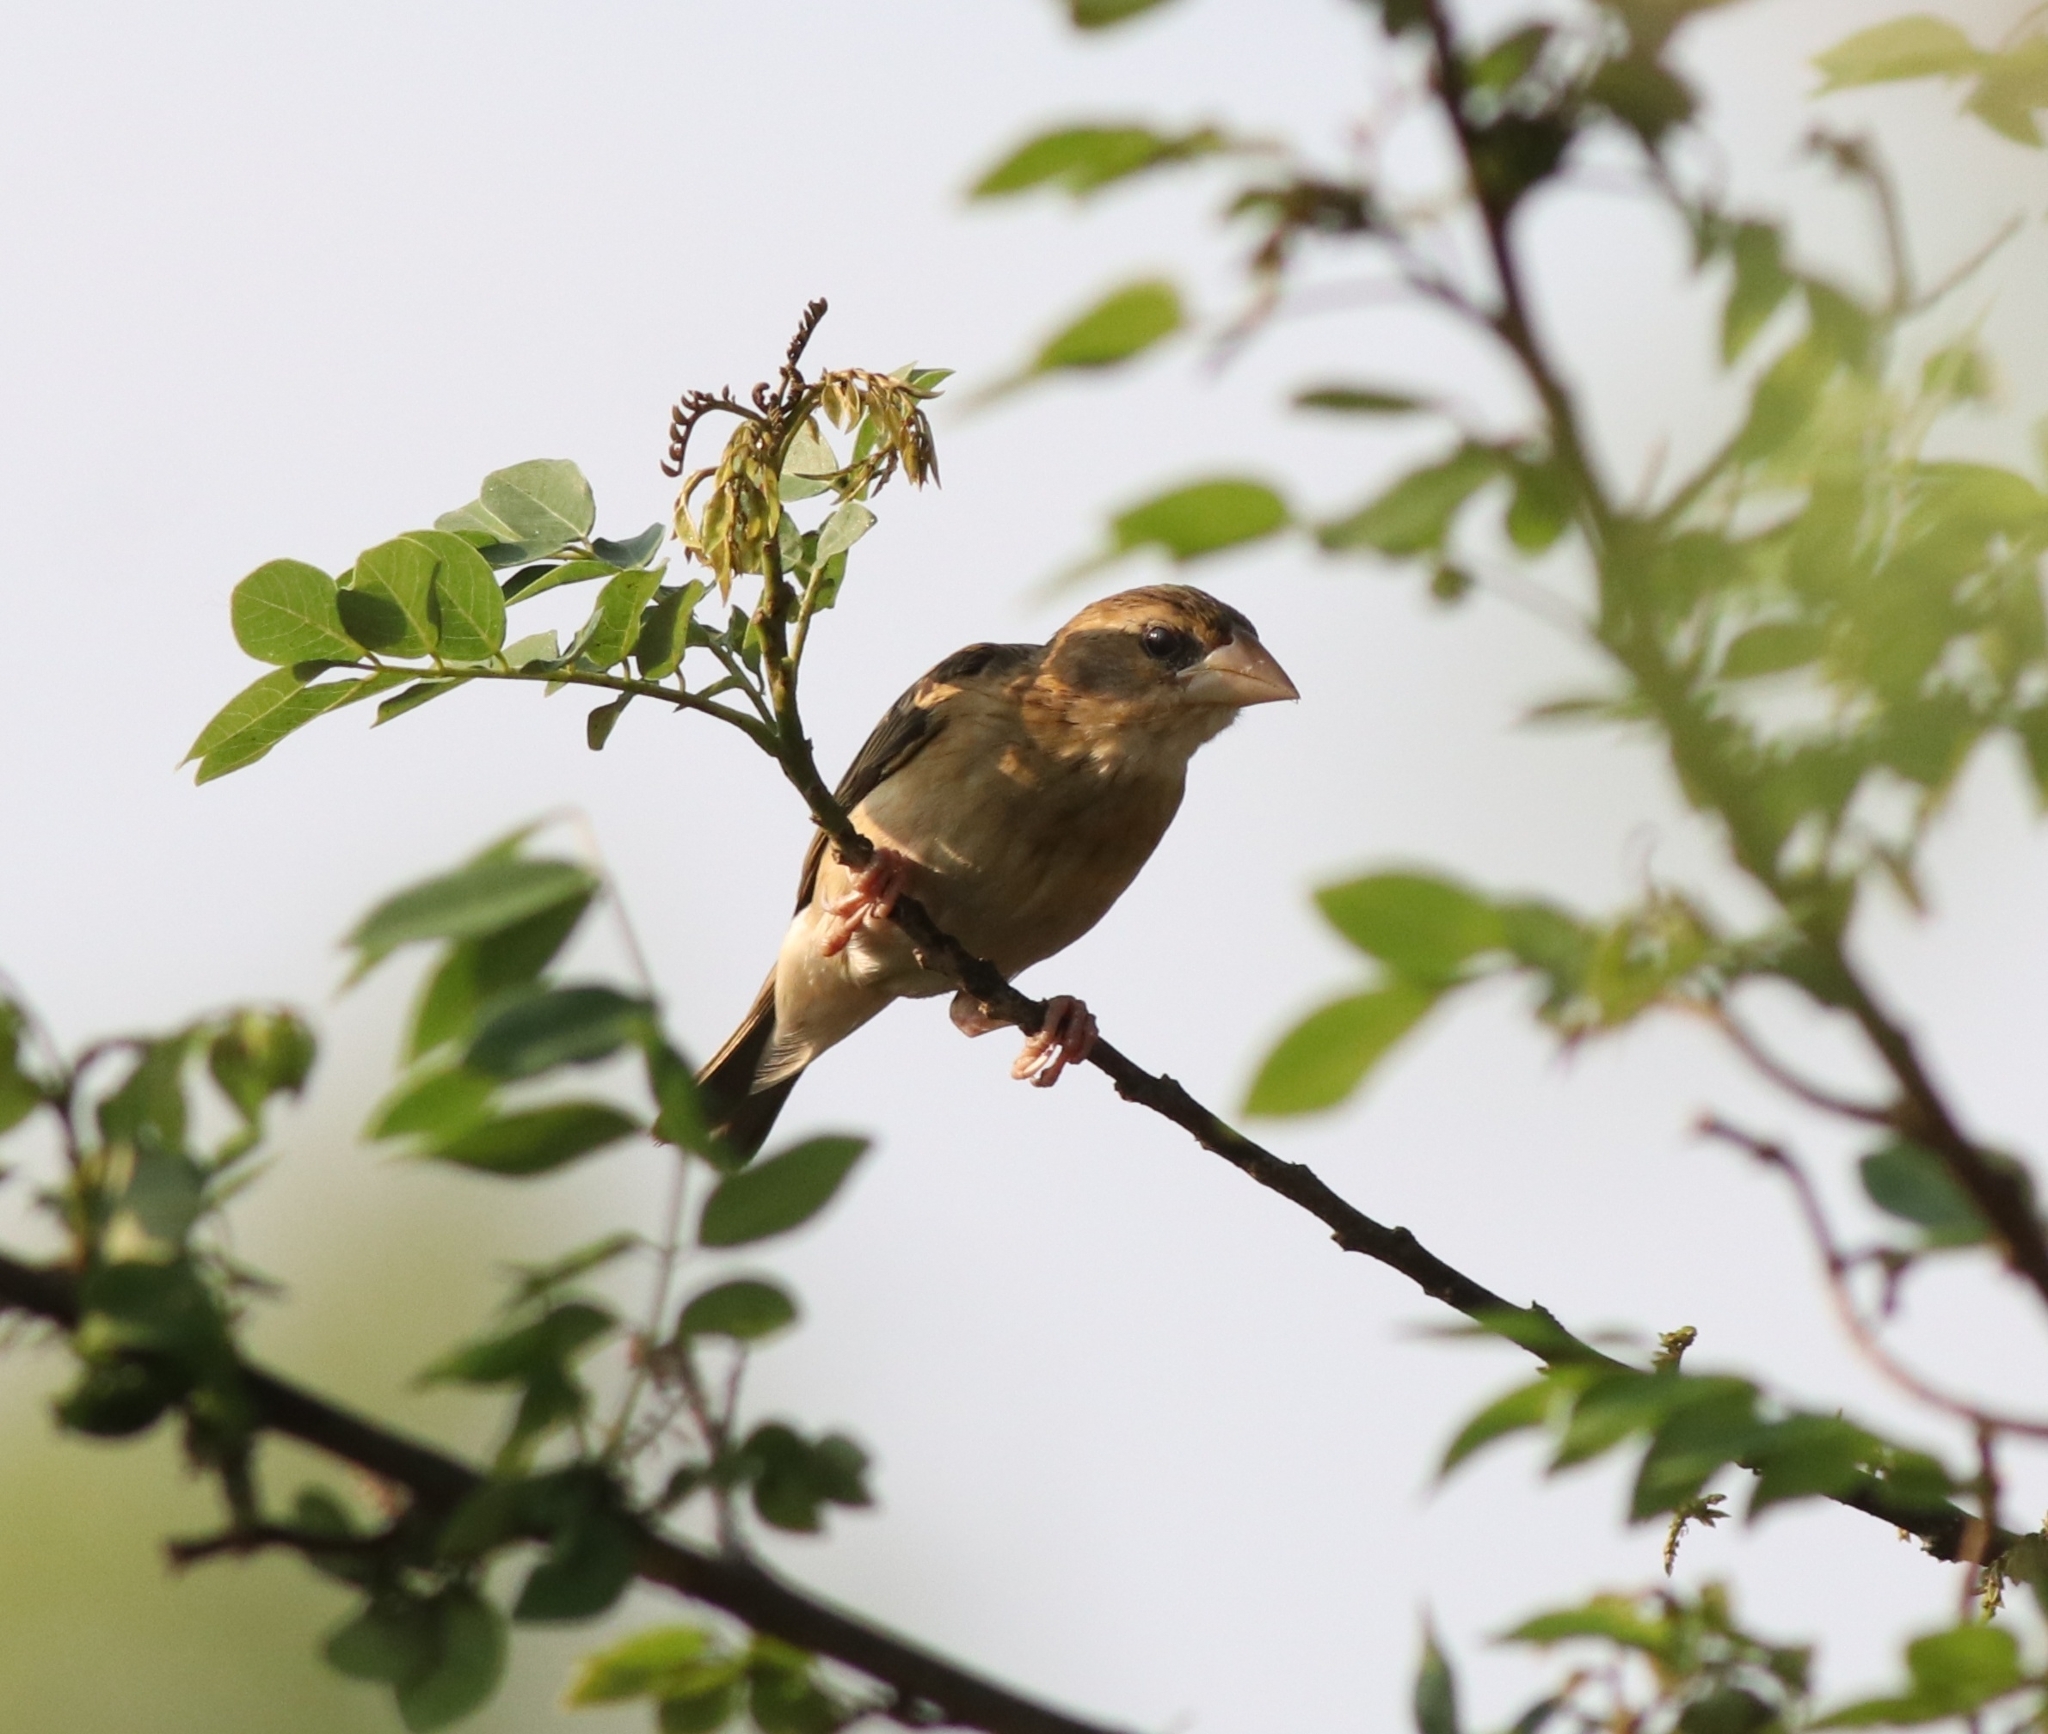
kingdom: Animalia
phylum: Chordata
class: Aves
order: Passeriformes
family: Ploceidae
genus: Ploceus
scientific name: Ploceus philippinus
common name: Baya weaver
